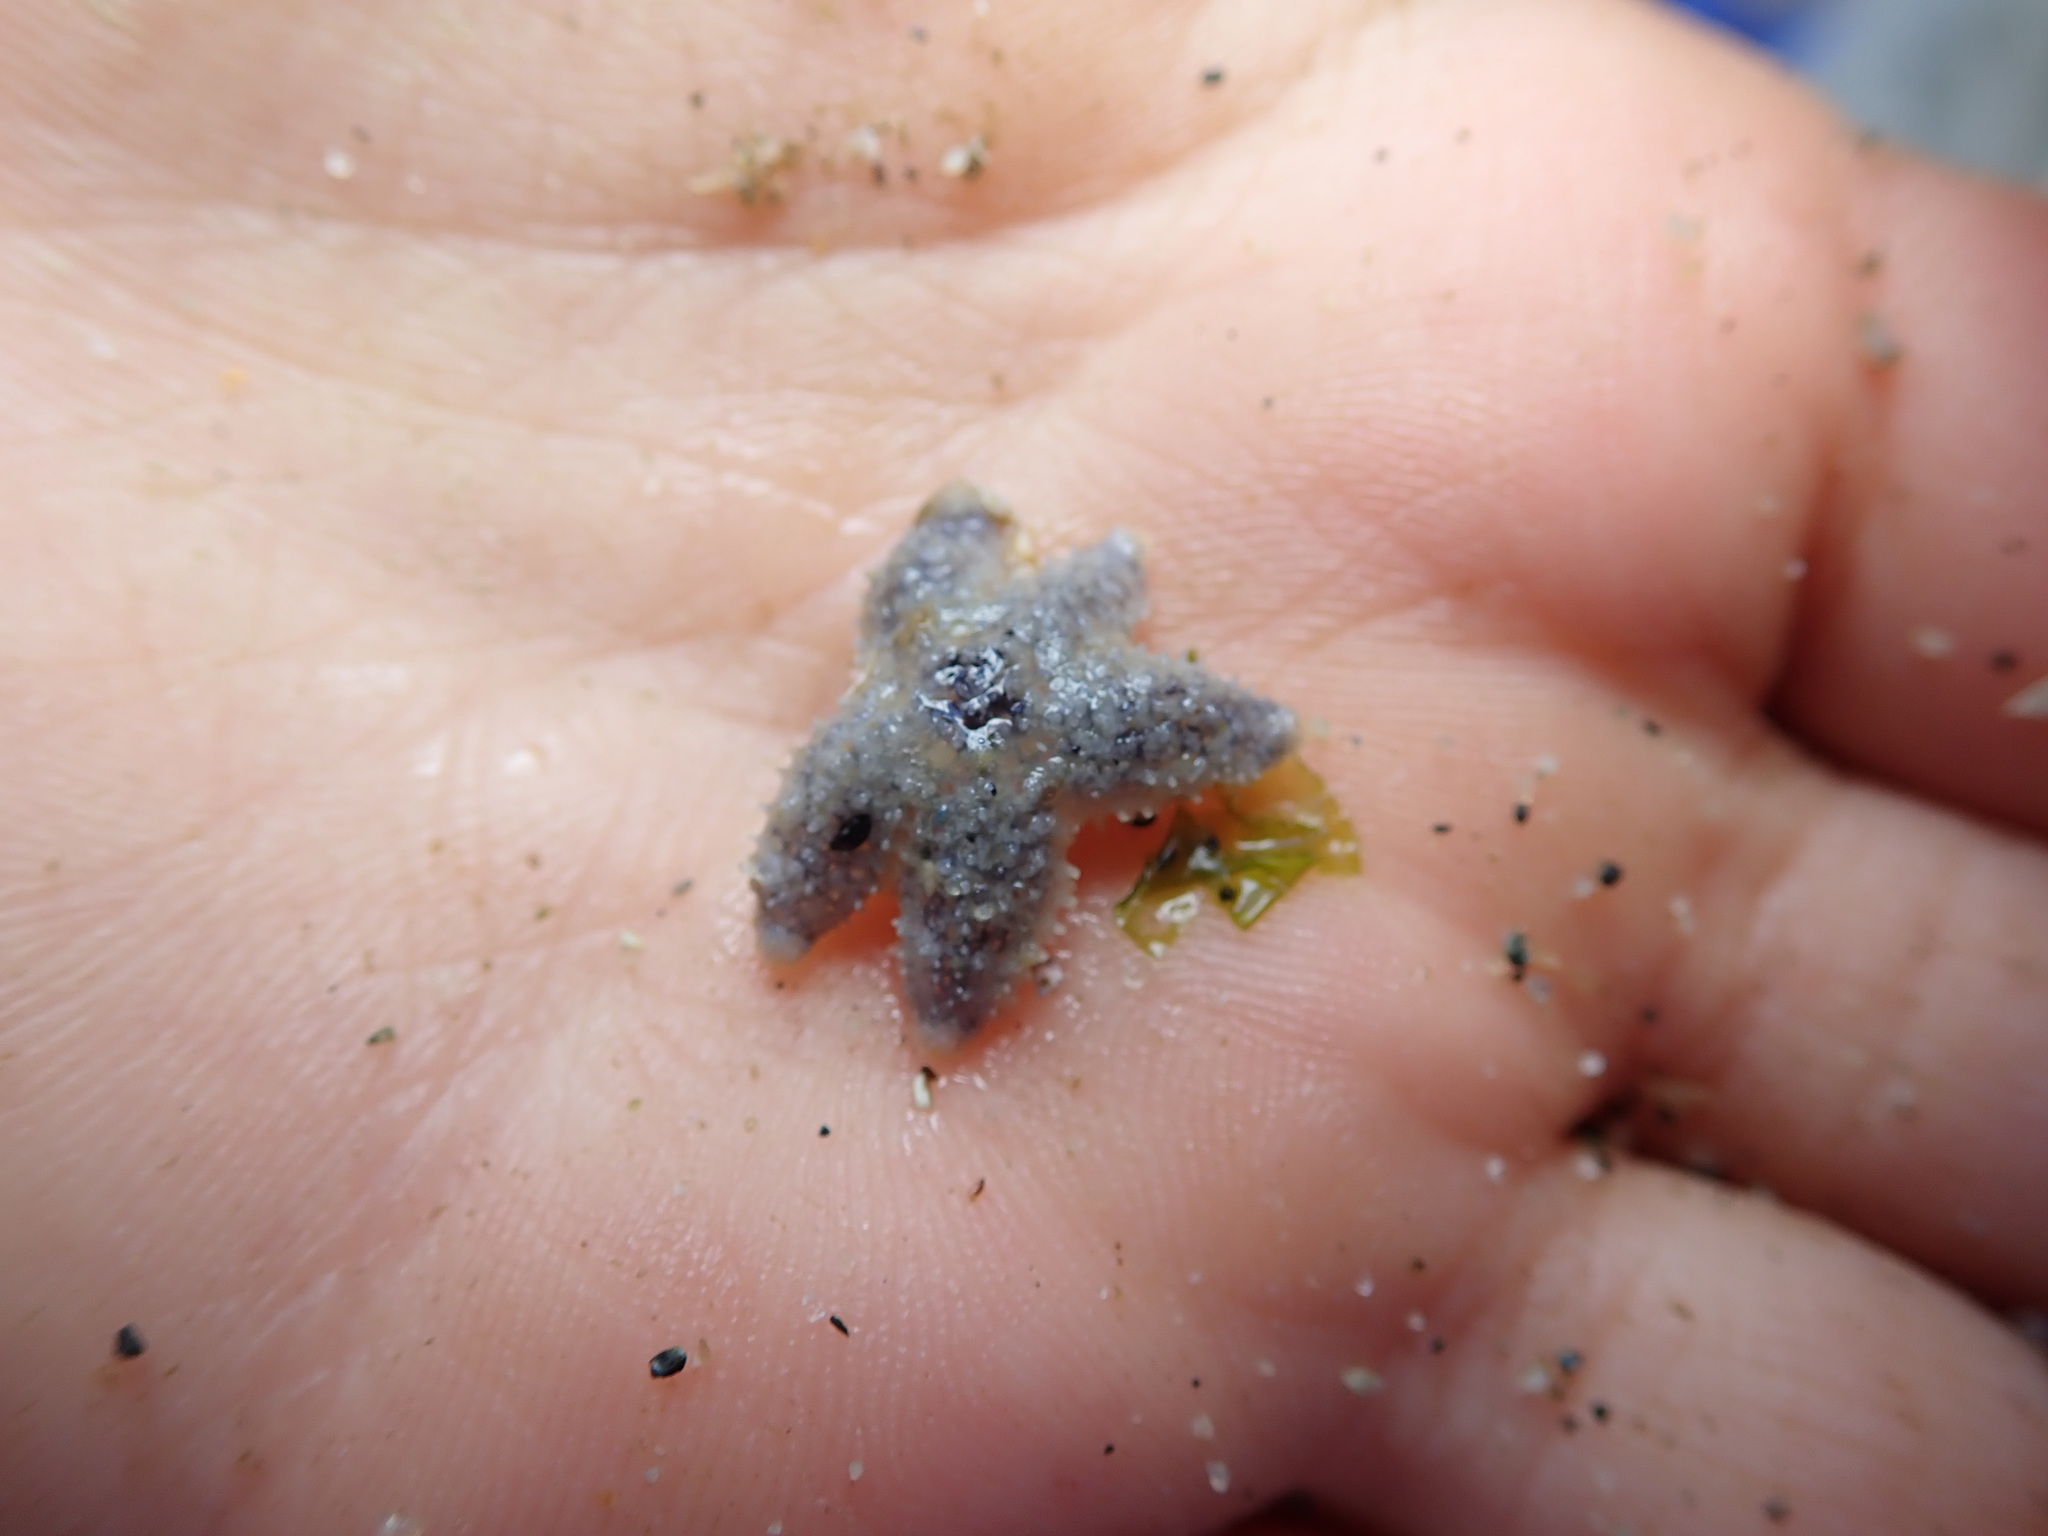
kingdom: Animalia
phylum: Echinodermata
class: Asteroidea
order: Forcipulatida
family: Asteriidae
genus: Pisaster
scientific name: Pisaster ochraceus
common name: Ochre stars
